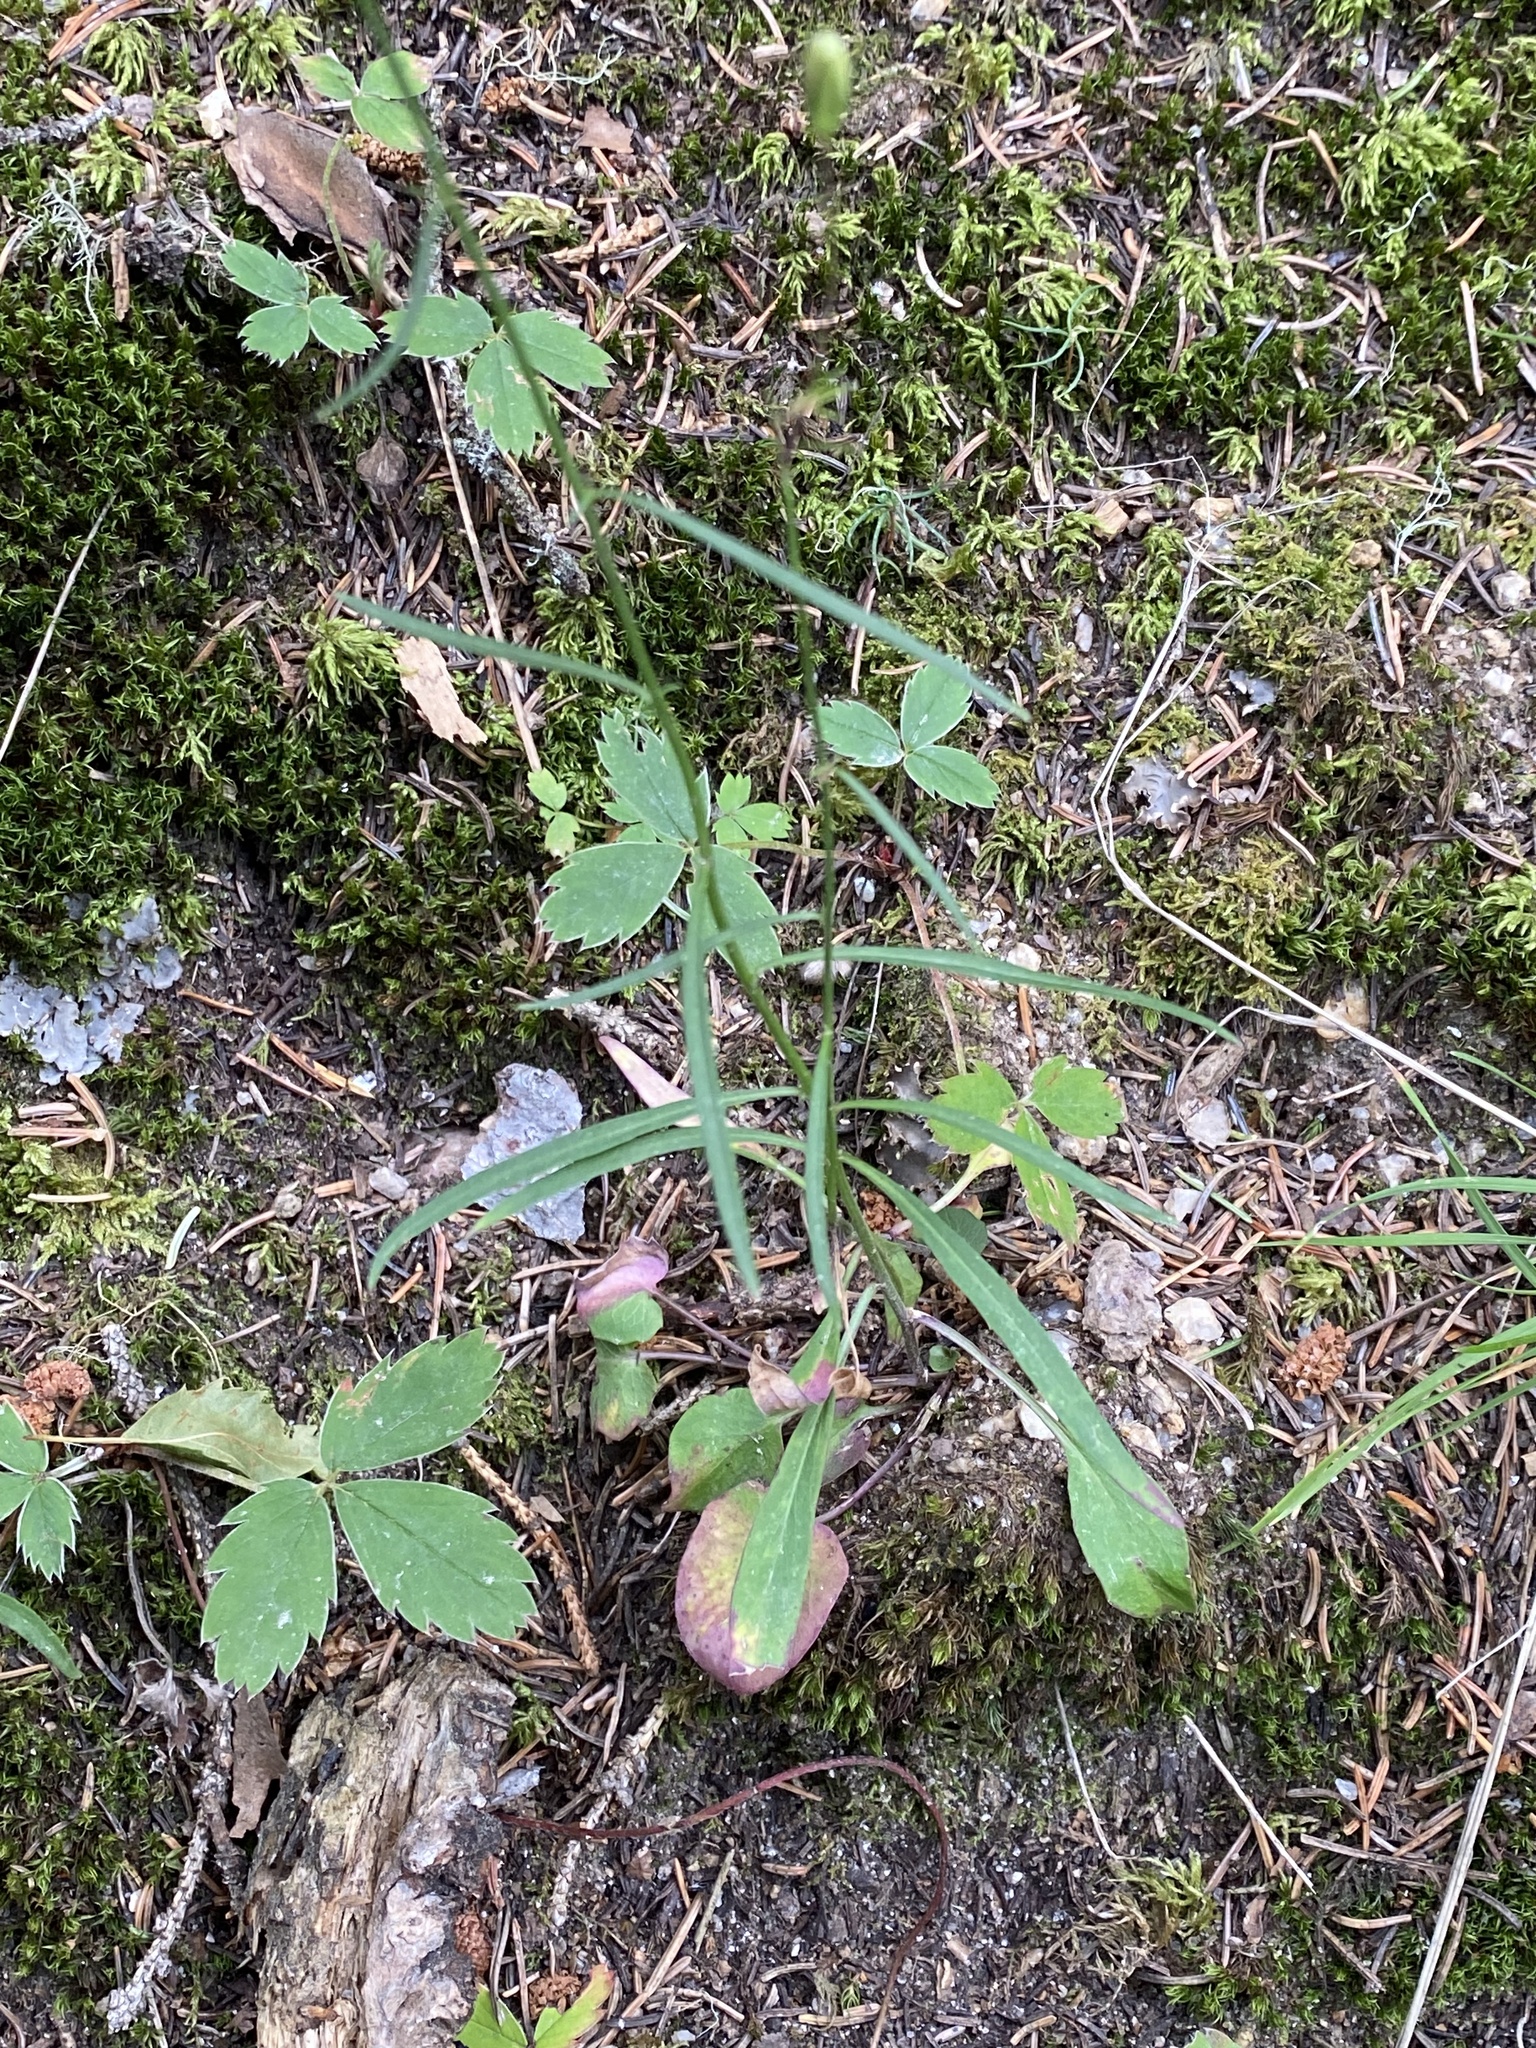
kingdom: Plantae
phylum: Tracheophyta
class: Magnoliopsida
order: Asterales
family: Campanulaceae
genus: Campanula
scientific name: Campanula petiolata
